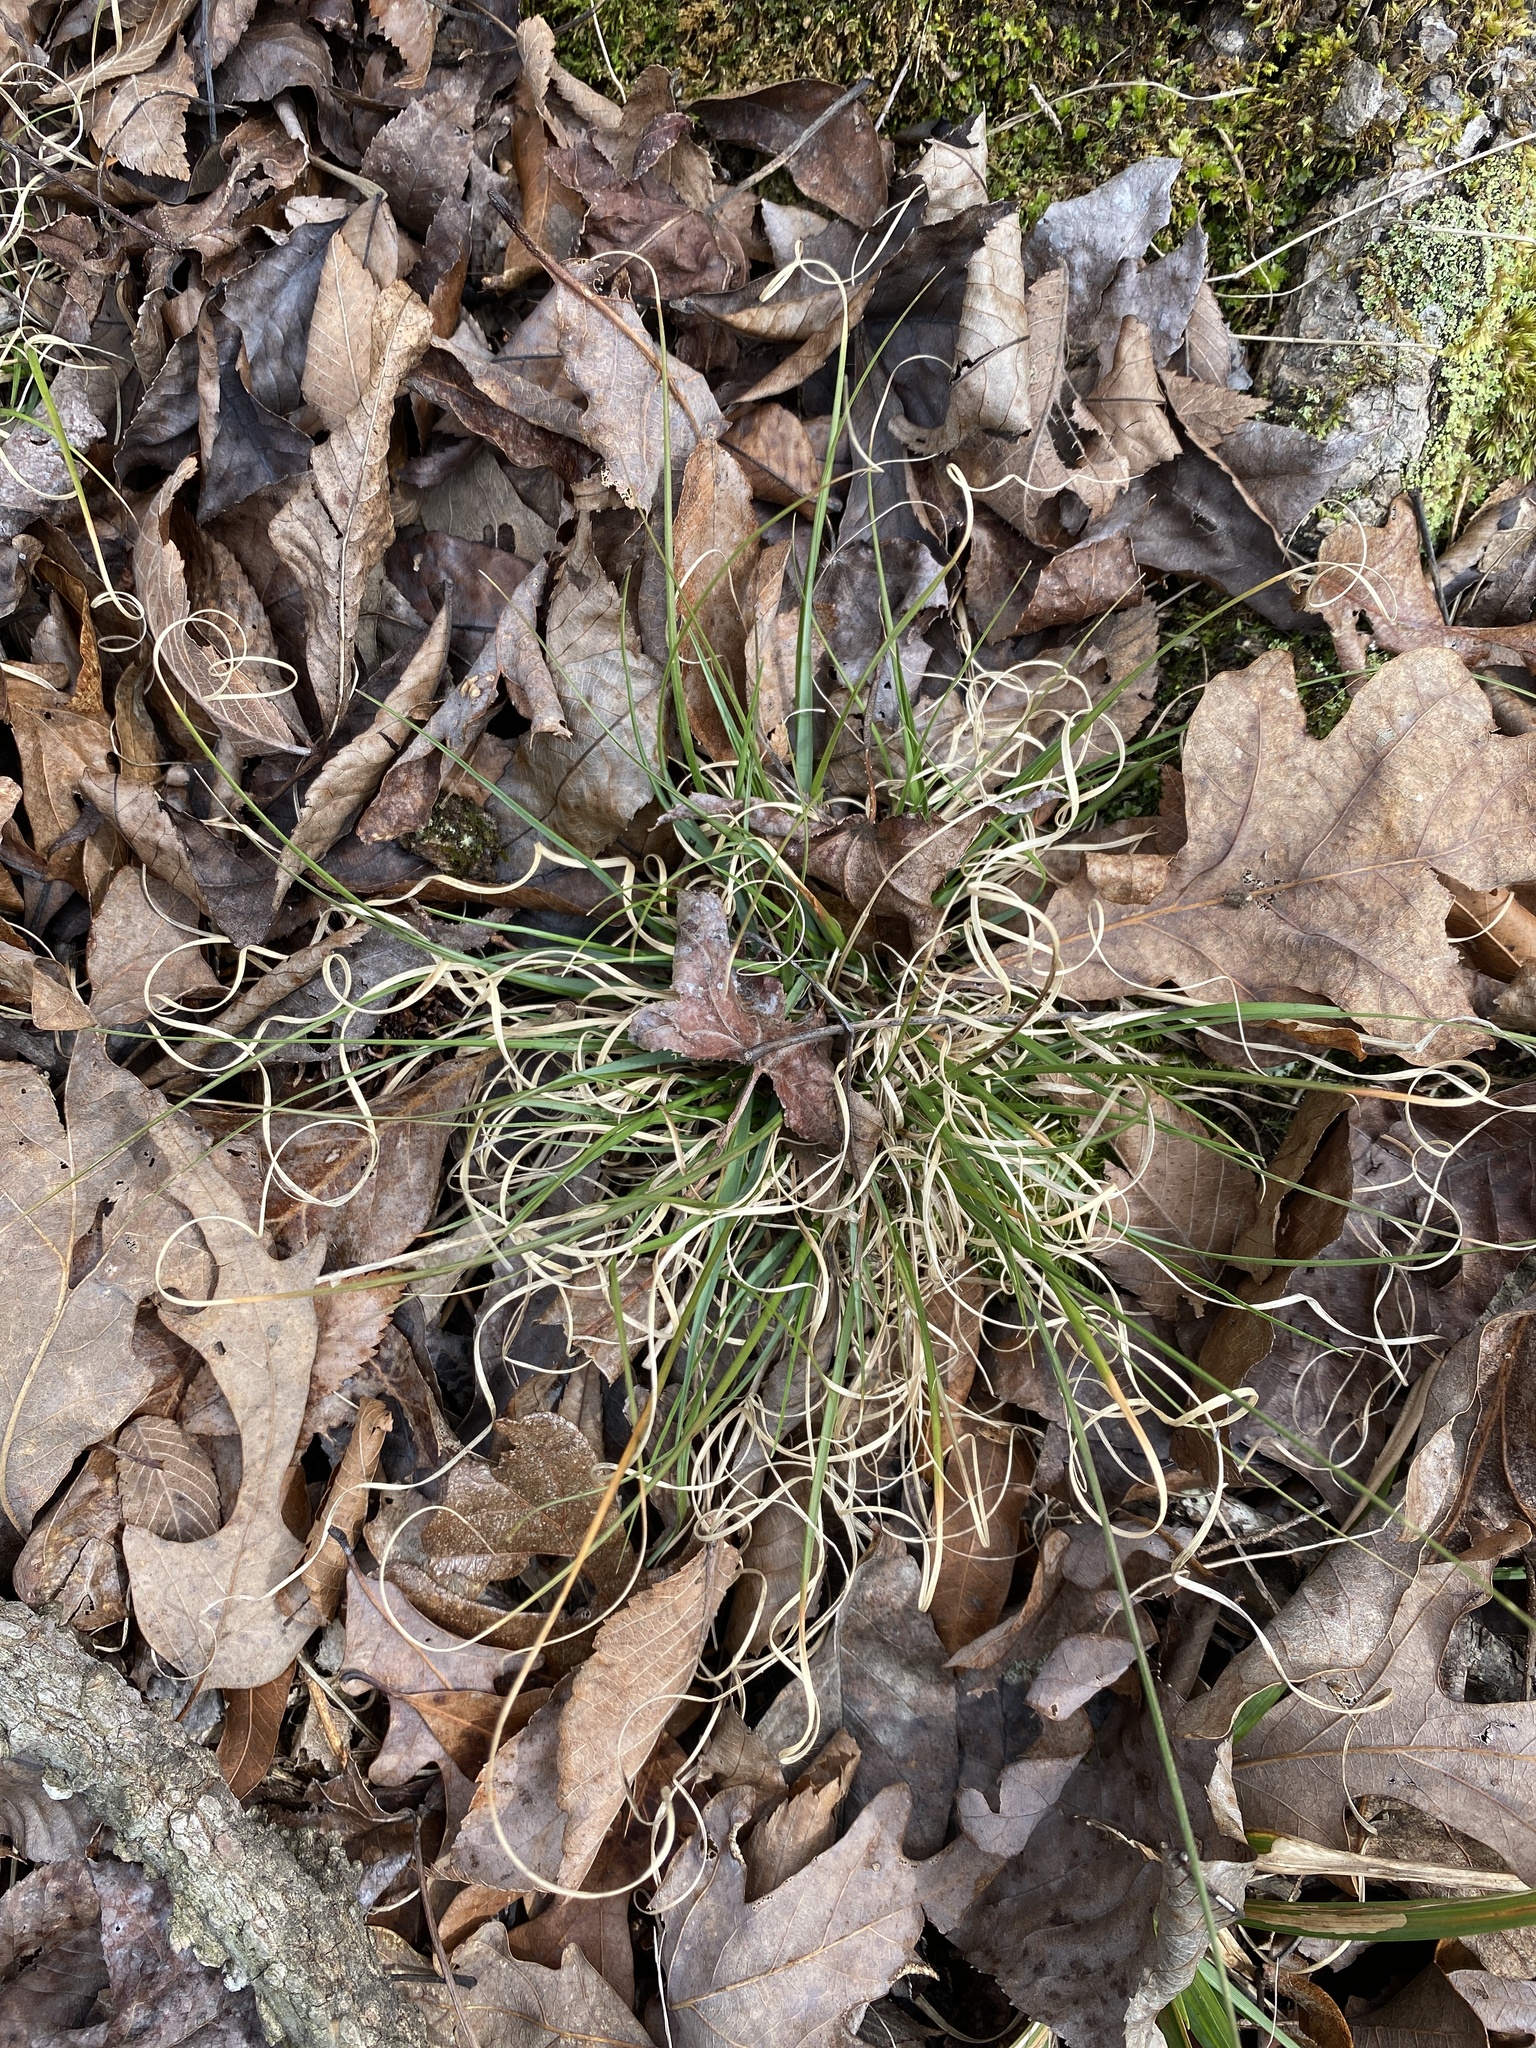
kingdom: Plantae
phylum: Tracheophyta
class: Liliopsida
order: Poales
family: Poaceae
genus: Danthonia
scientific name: Danthonia spicata
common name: Common wild oatgrass
